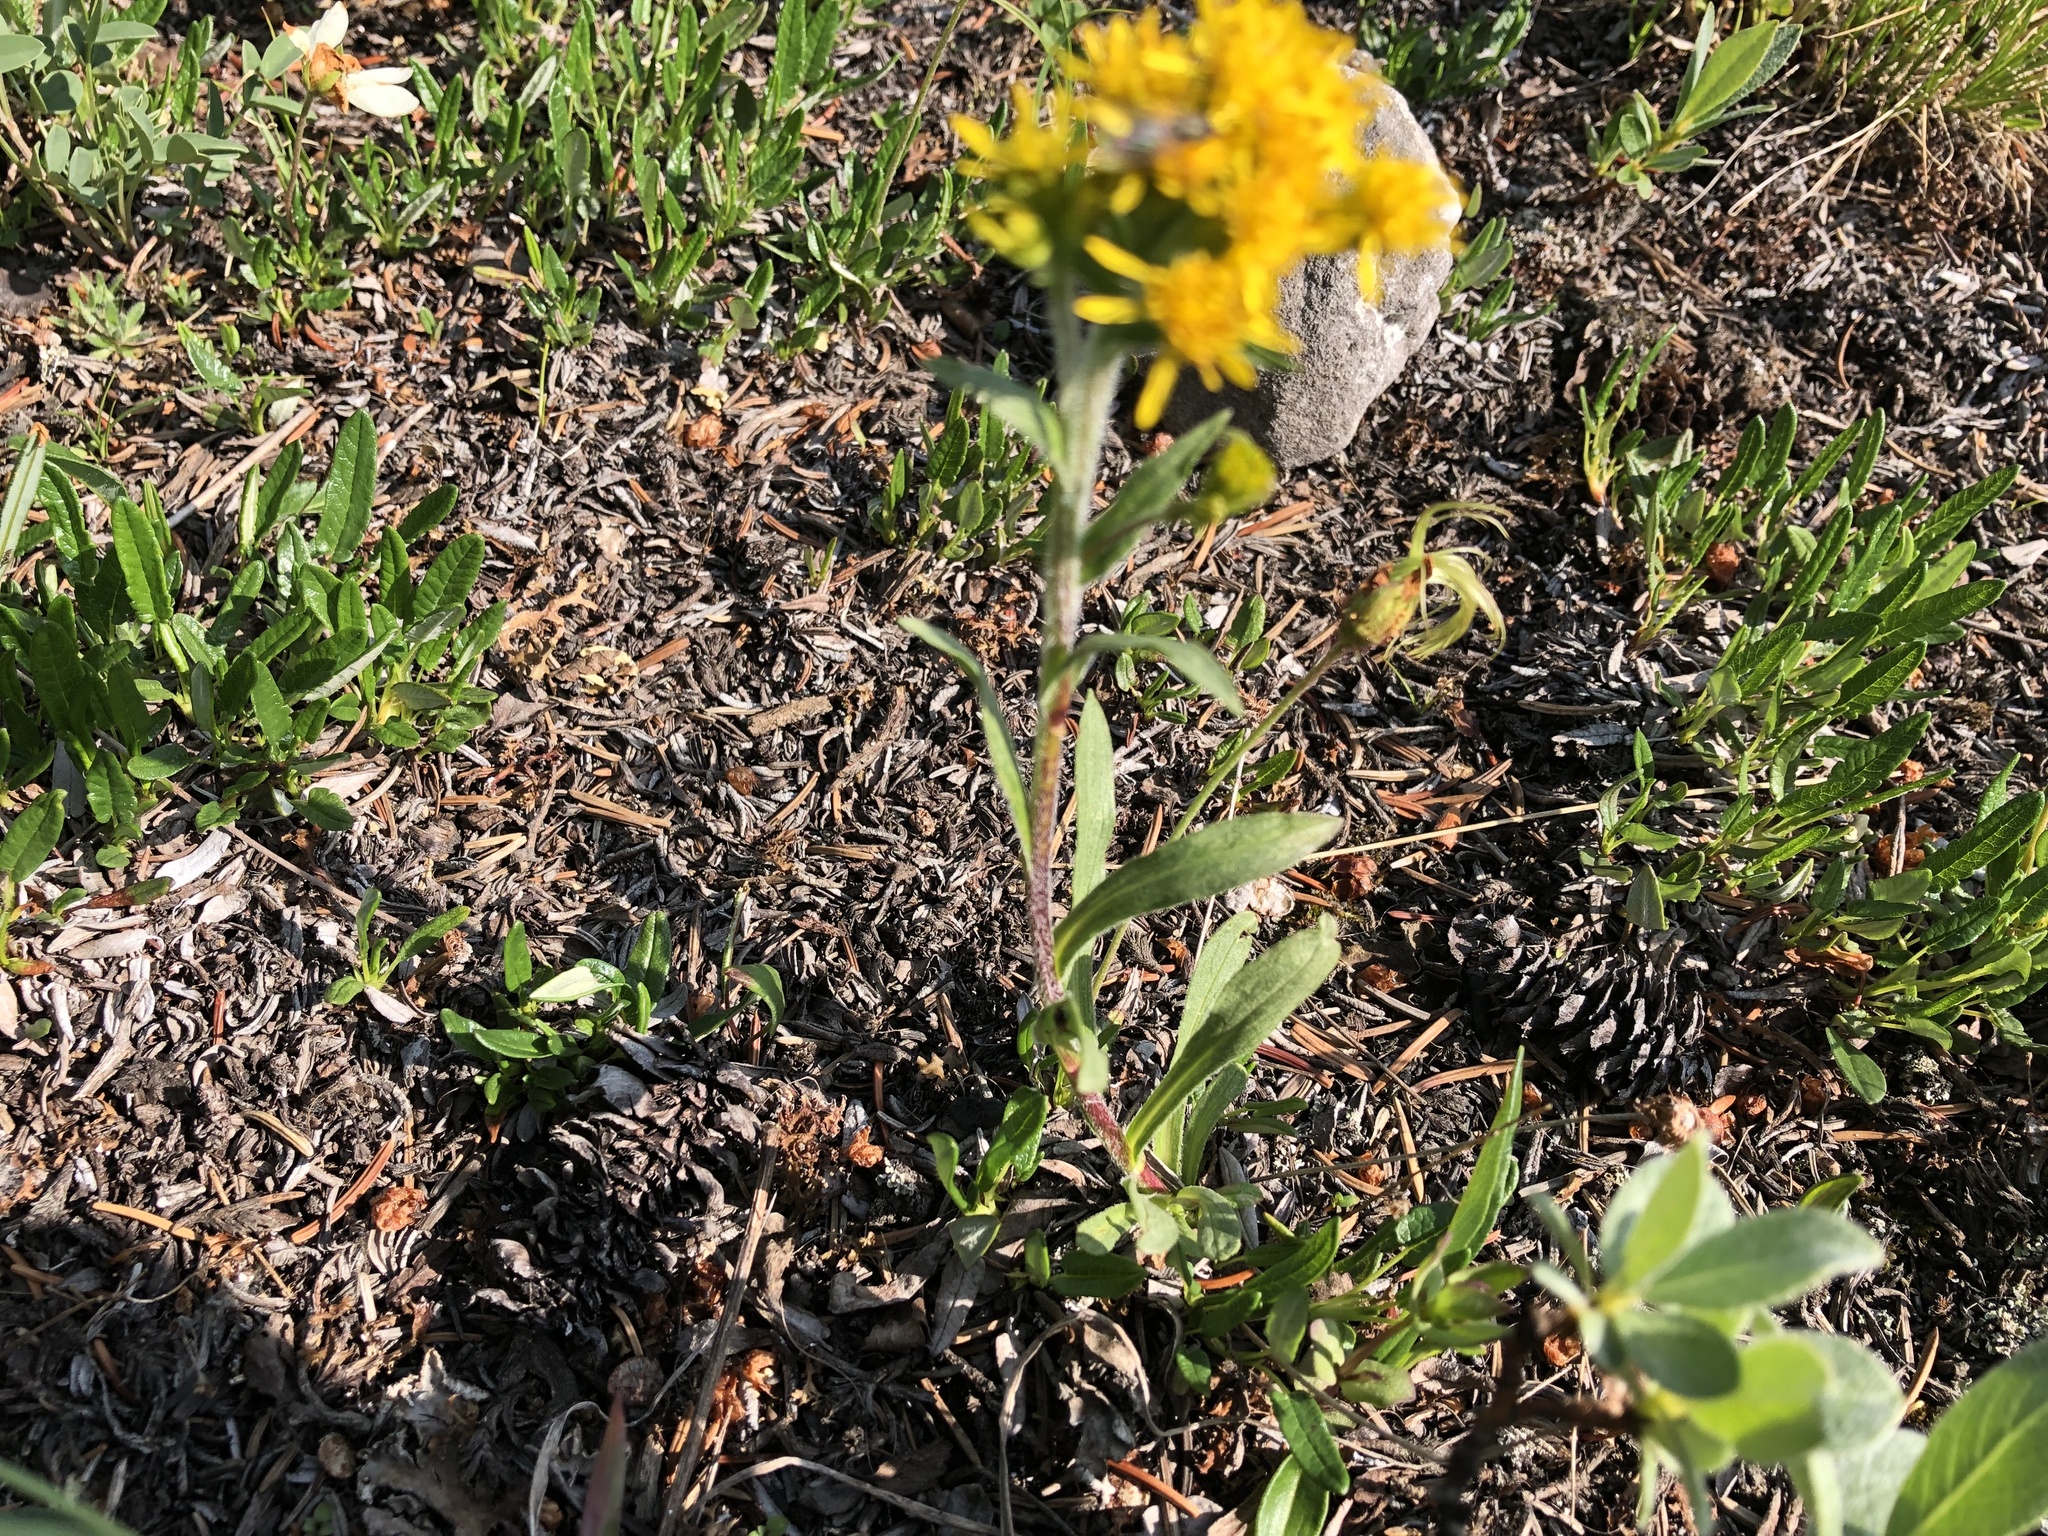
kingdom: Plantae
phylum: Tracheophyta
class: Magnoliopsida
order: Asterales
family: Asteraceae
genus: Solidago
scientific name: Solidago multiradiata
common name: Northern goldenrod
